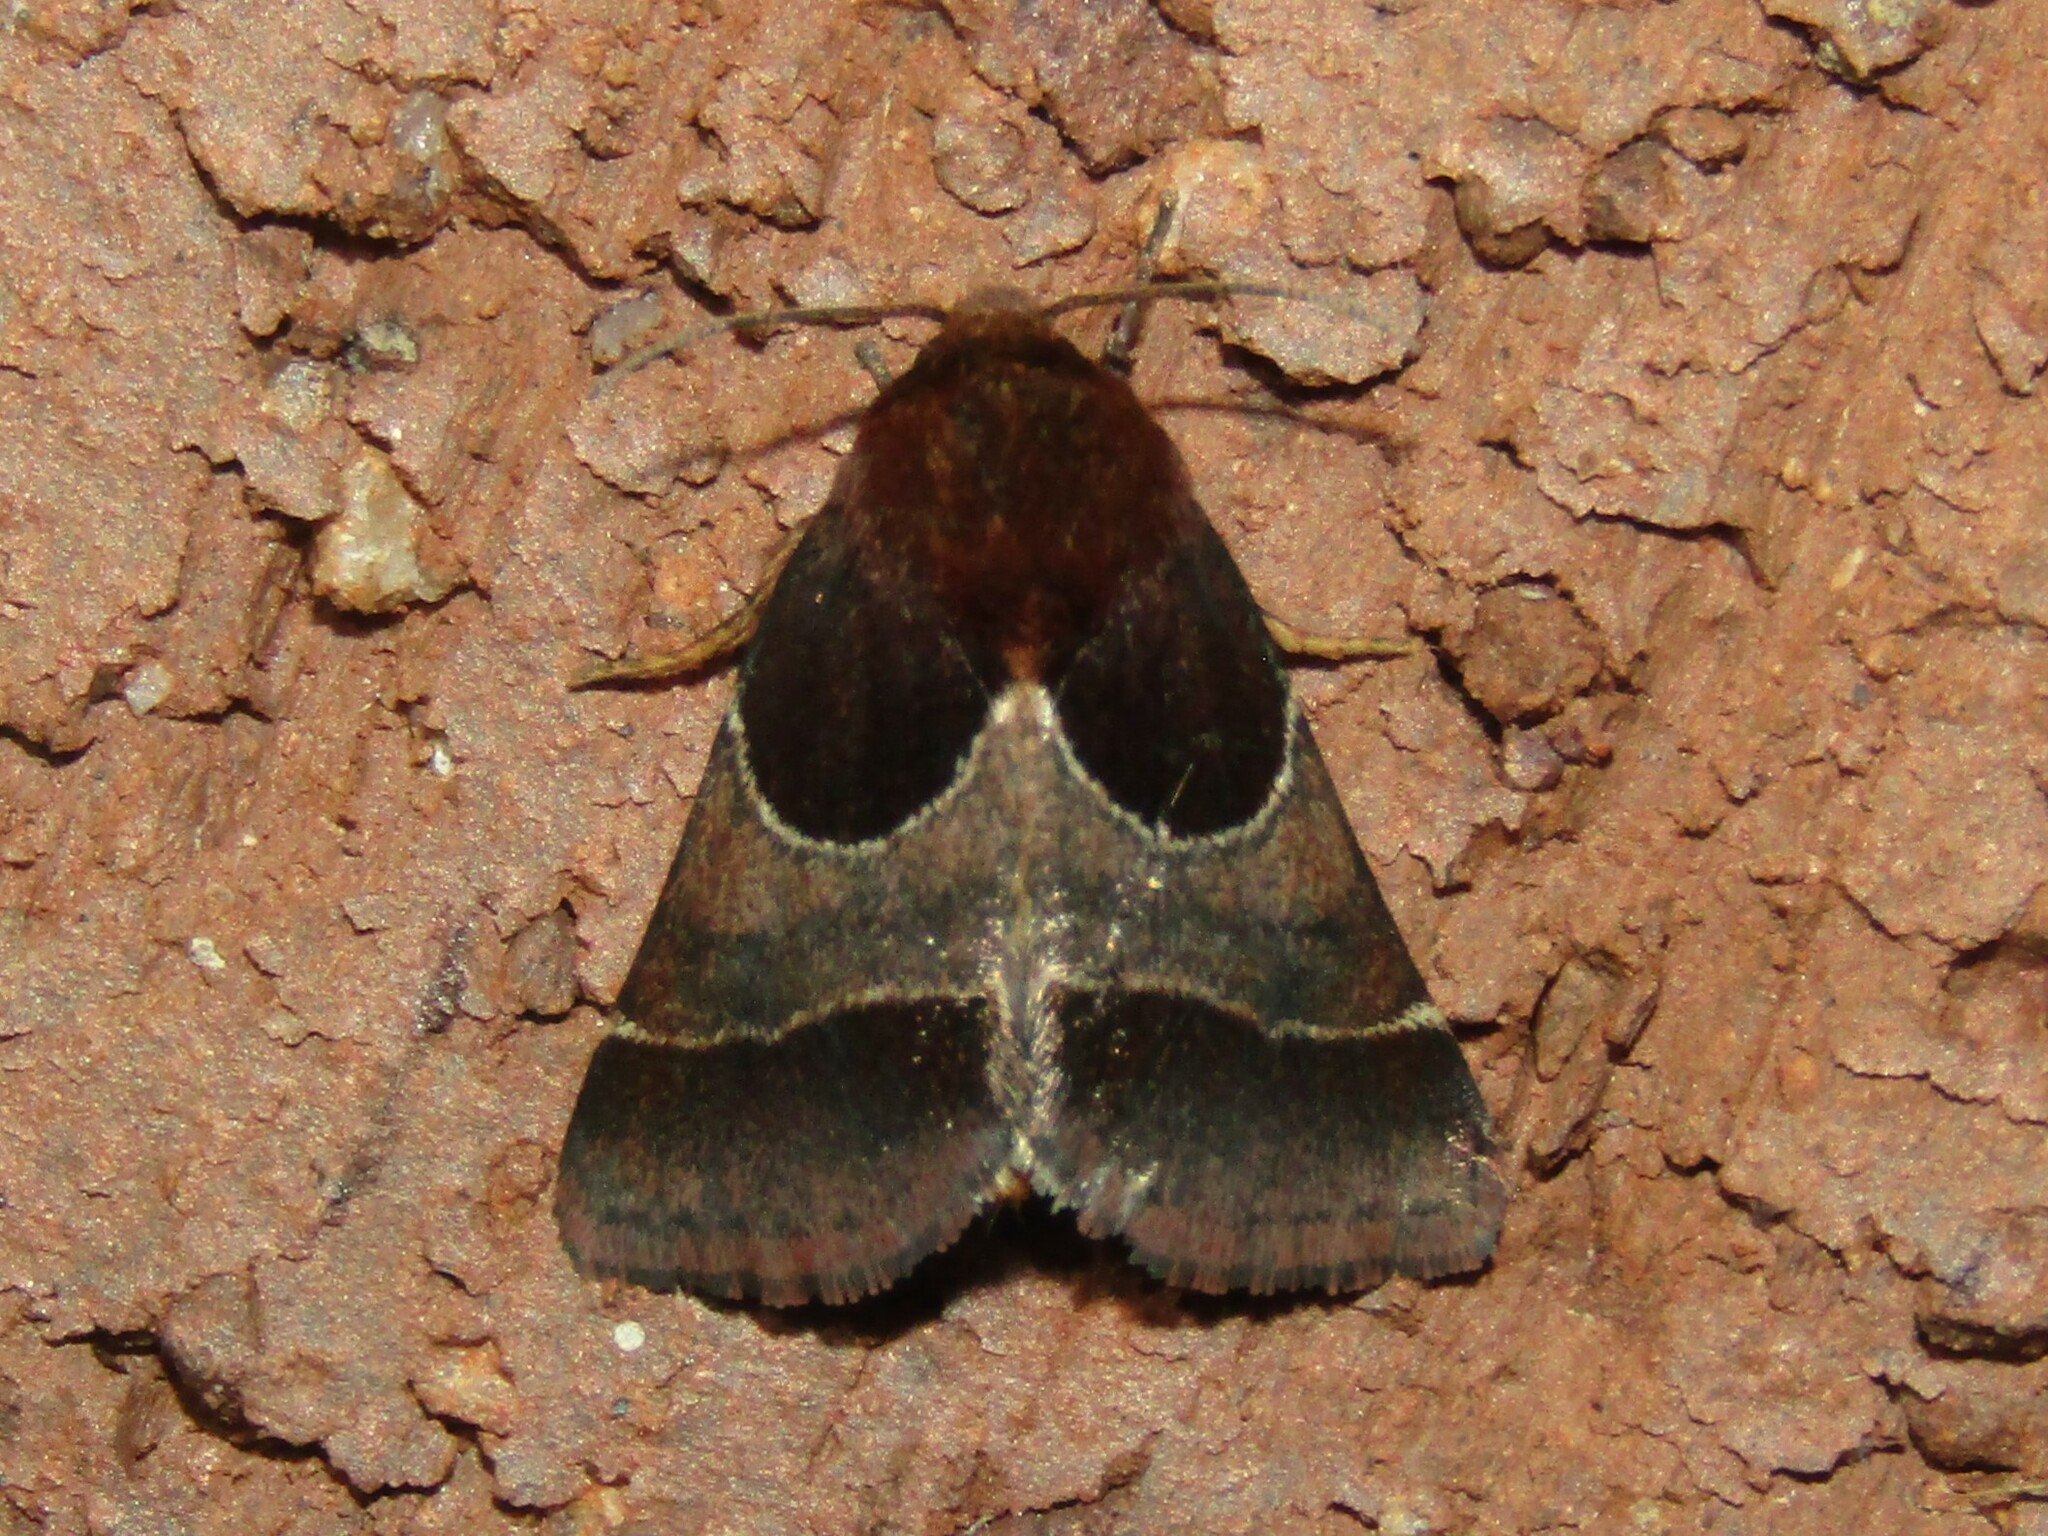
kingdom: Animalia
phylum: Arthropoda
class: Insecta
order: Lepidoptera
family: Noctuidae
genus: Schinia
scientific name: Schinia arcigera
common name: Arcigera flower moth
